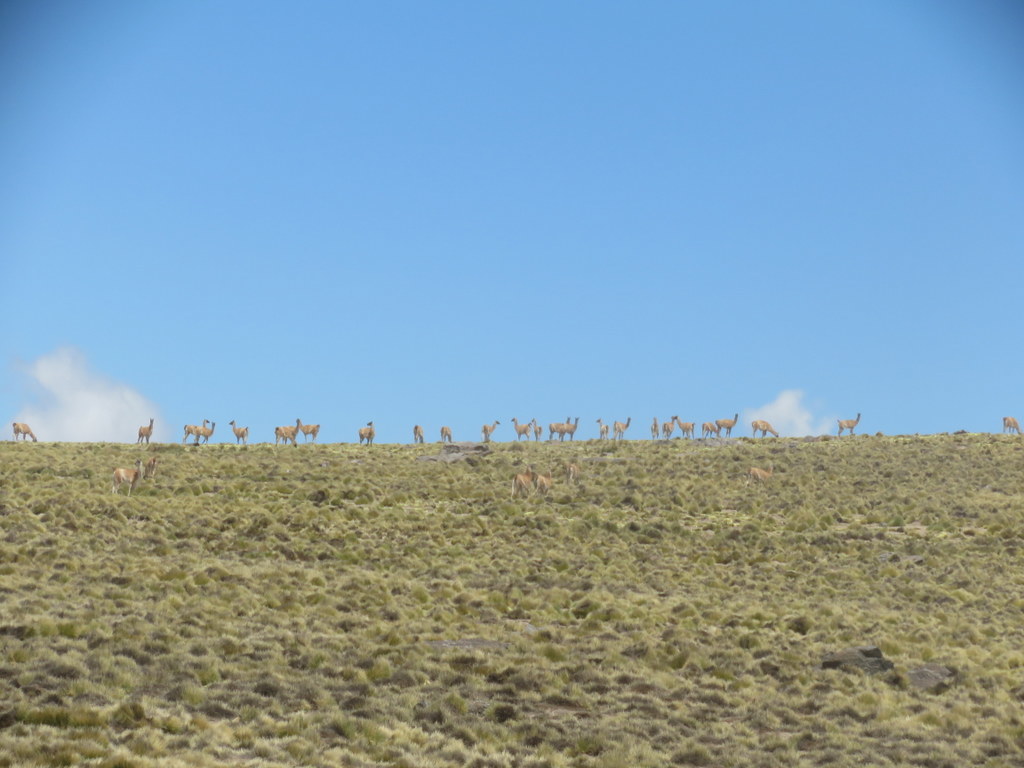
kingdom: Animalia
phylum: Chordata
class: Mammalia
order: Artiodactyla
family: Camelidae
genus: Lama
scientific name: Lama glama
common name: Llama
